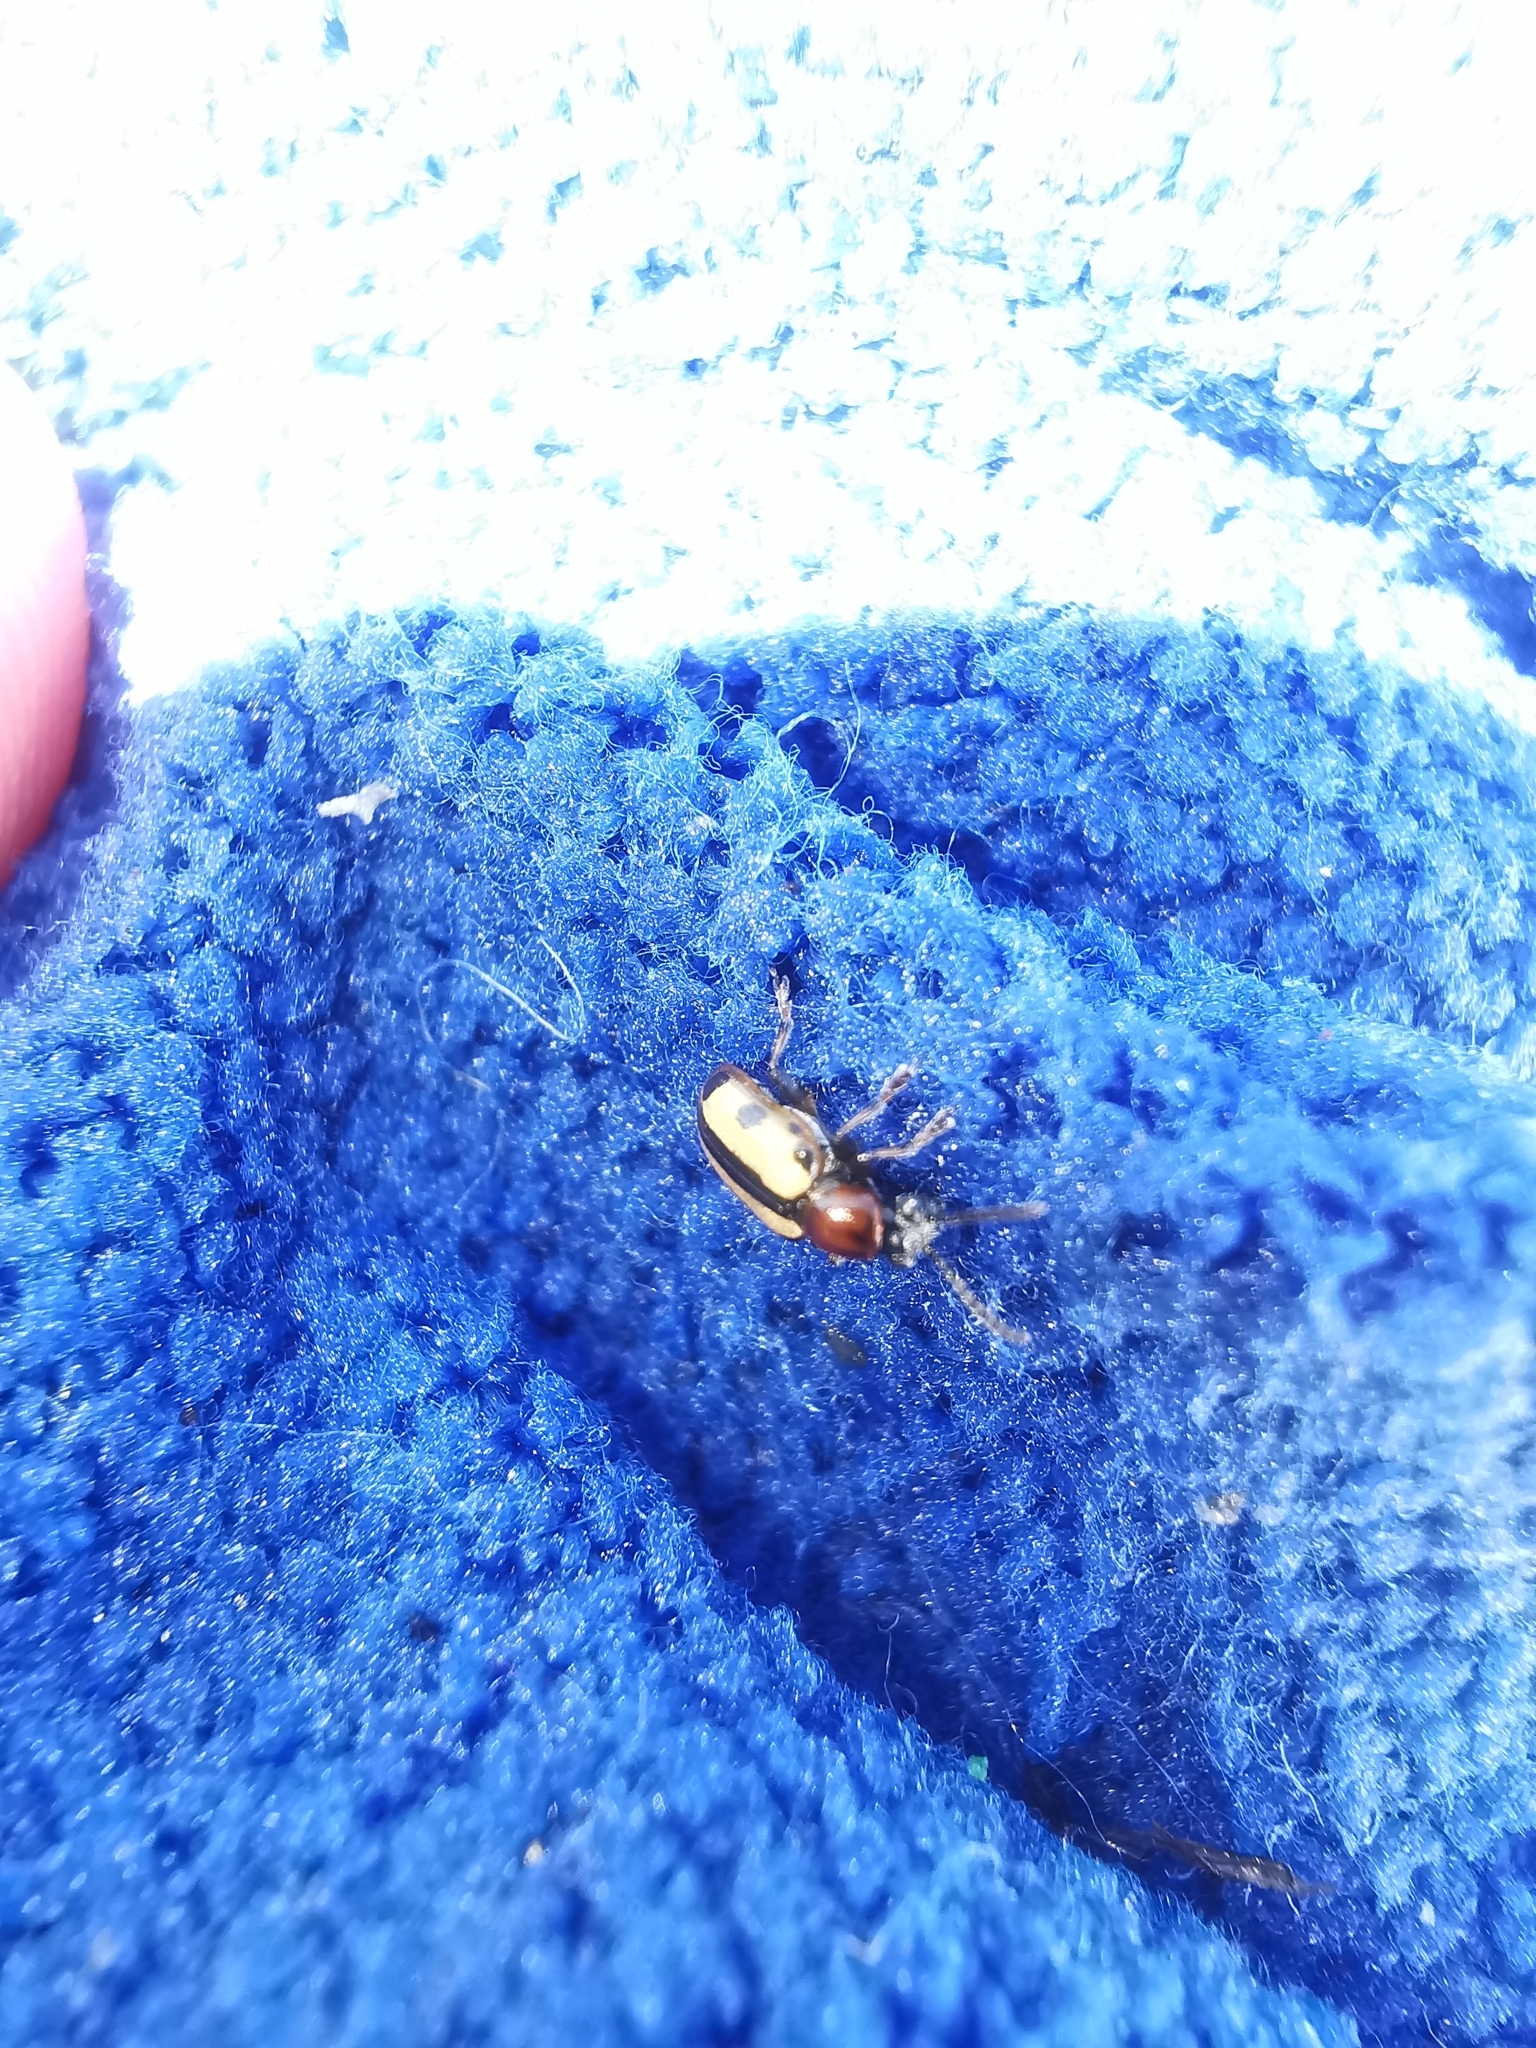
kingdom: Animalia
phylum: Arthropoda
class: Insecta
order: Coleoptera
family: Chrysomelidae
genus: Crioceris
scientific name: Crioceris paracenthesis
